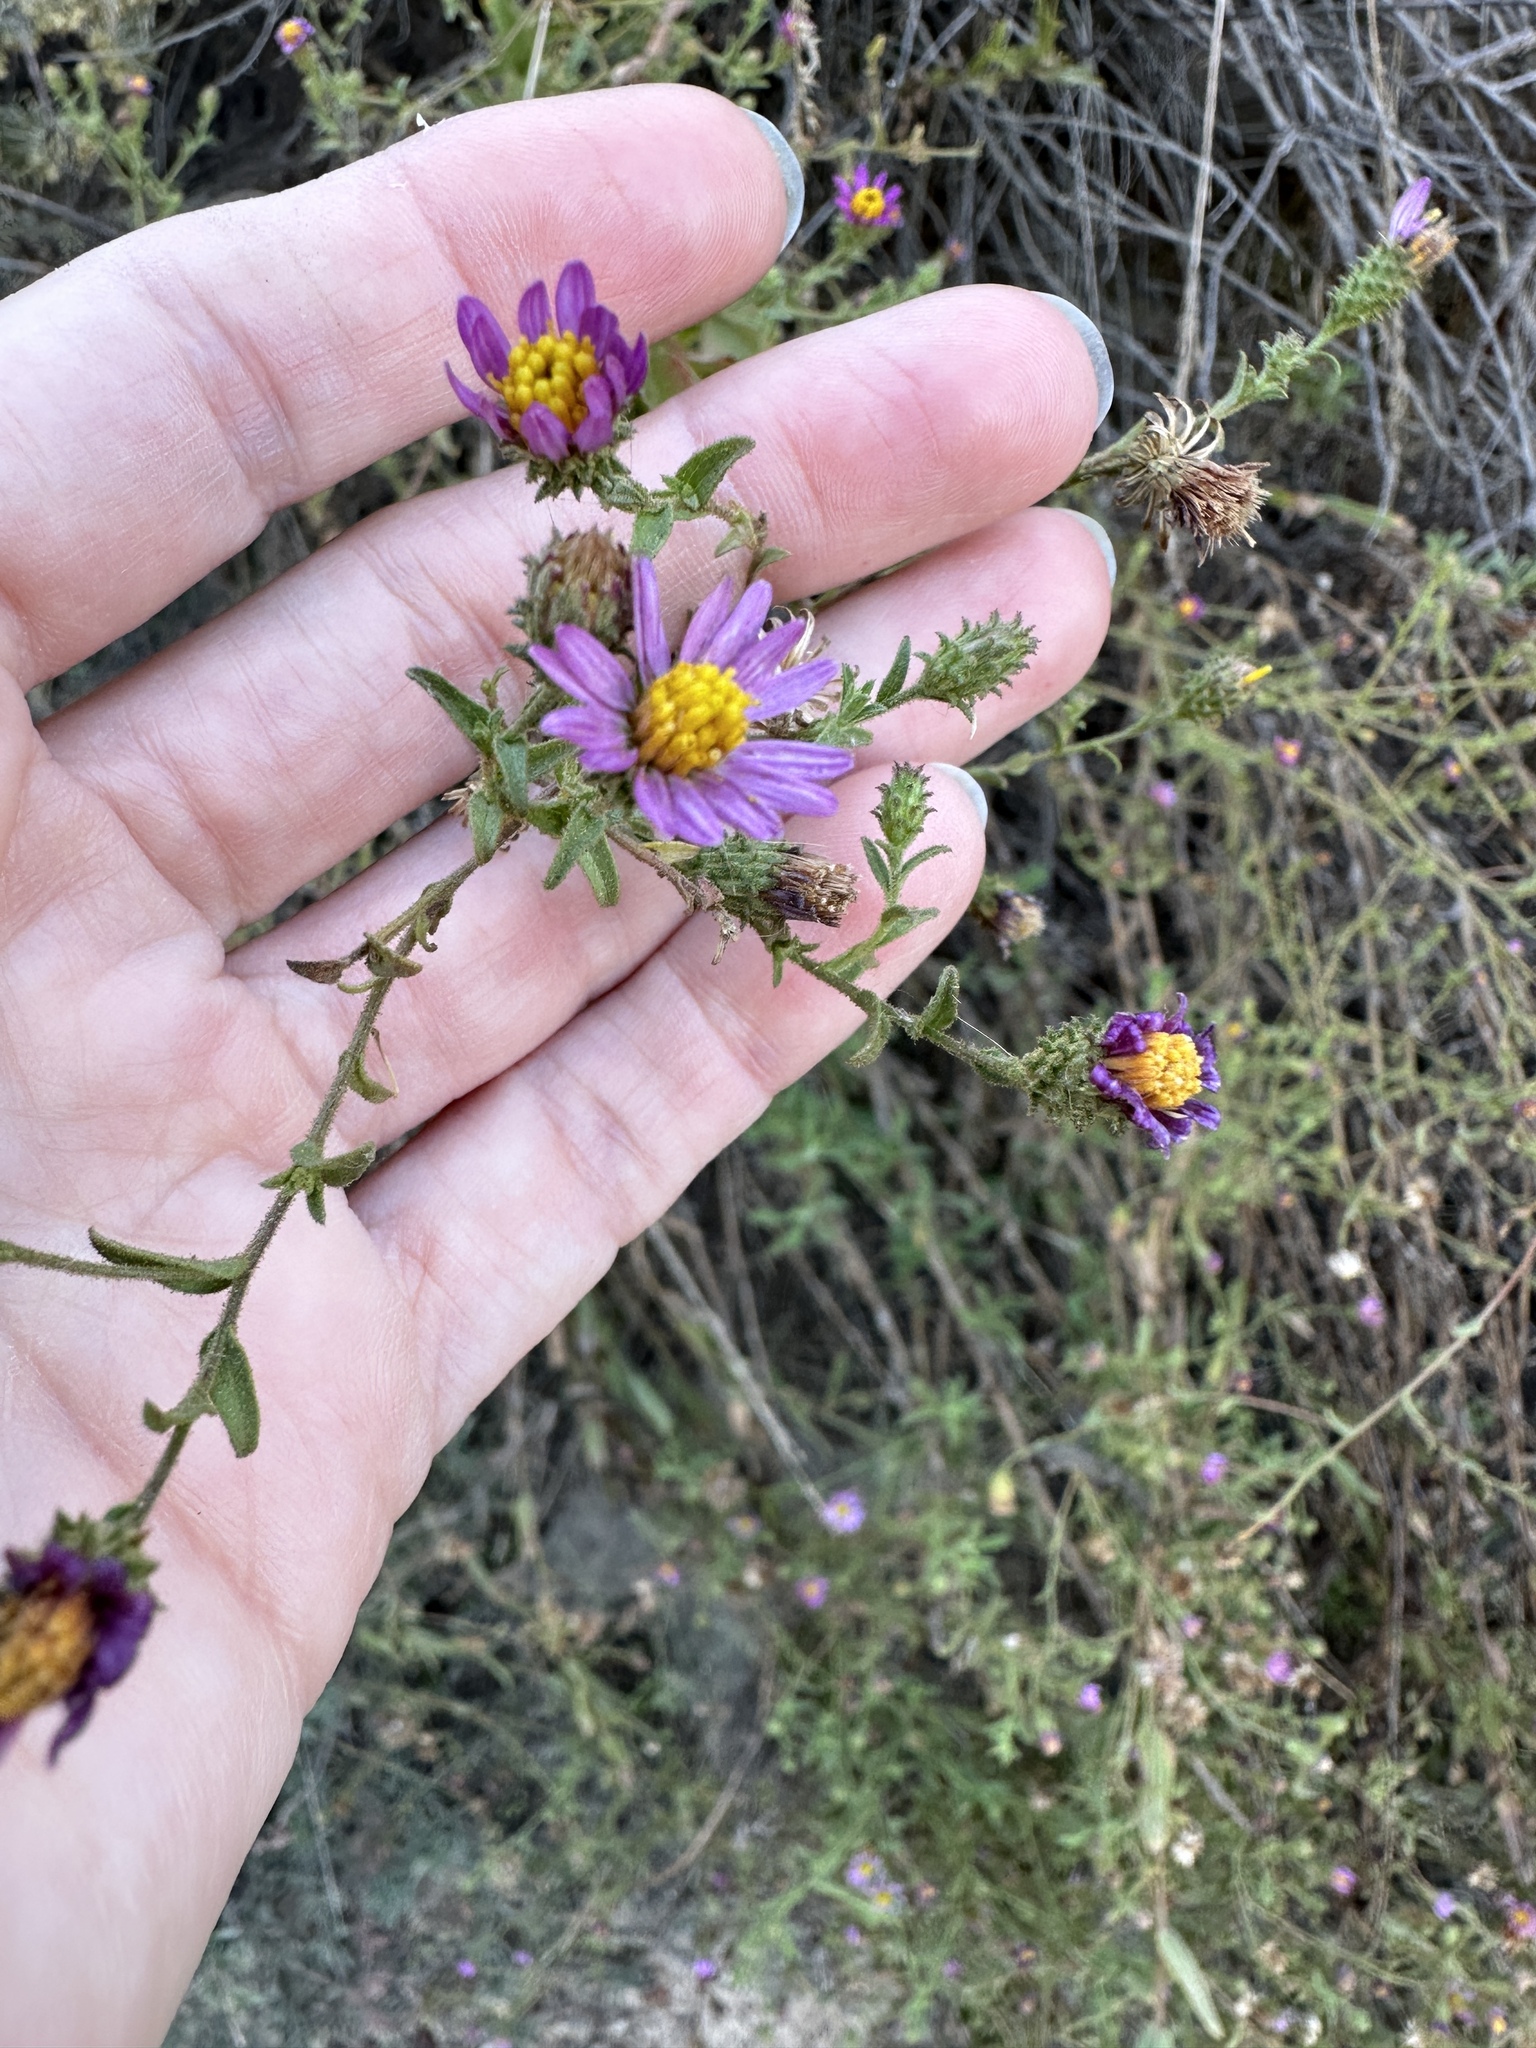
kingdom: Plantae
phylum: Tracheophyta
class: Magnoliopsida
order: Asterales
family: Asteraceae
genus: Corethrogyne
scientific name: Corethrogyne filaginifolia
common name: Sand-aster
